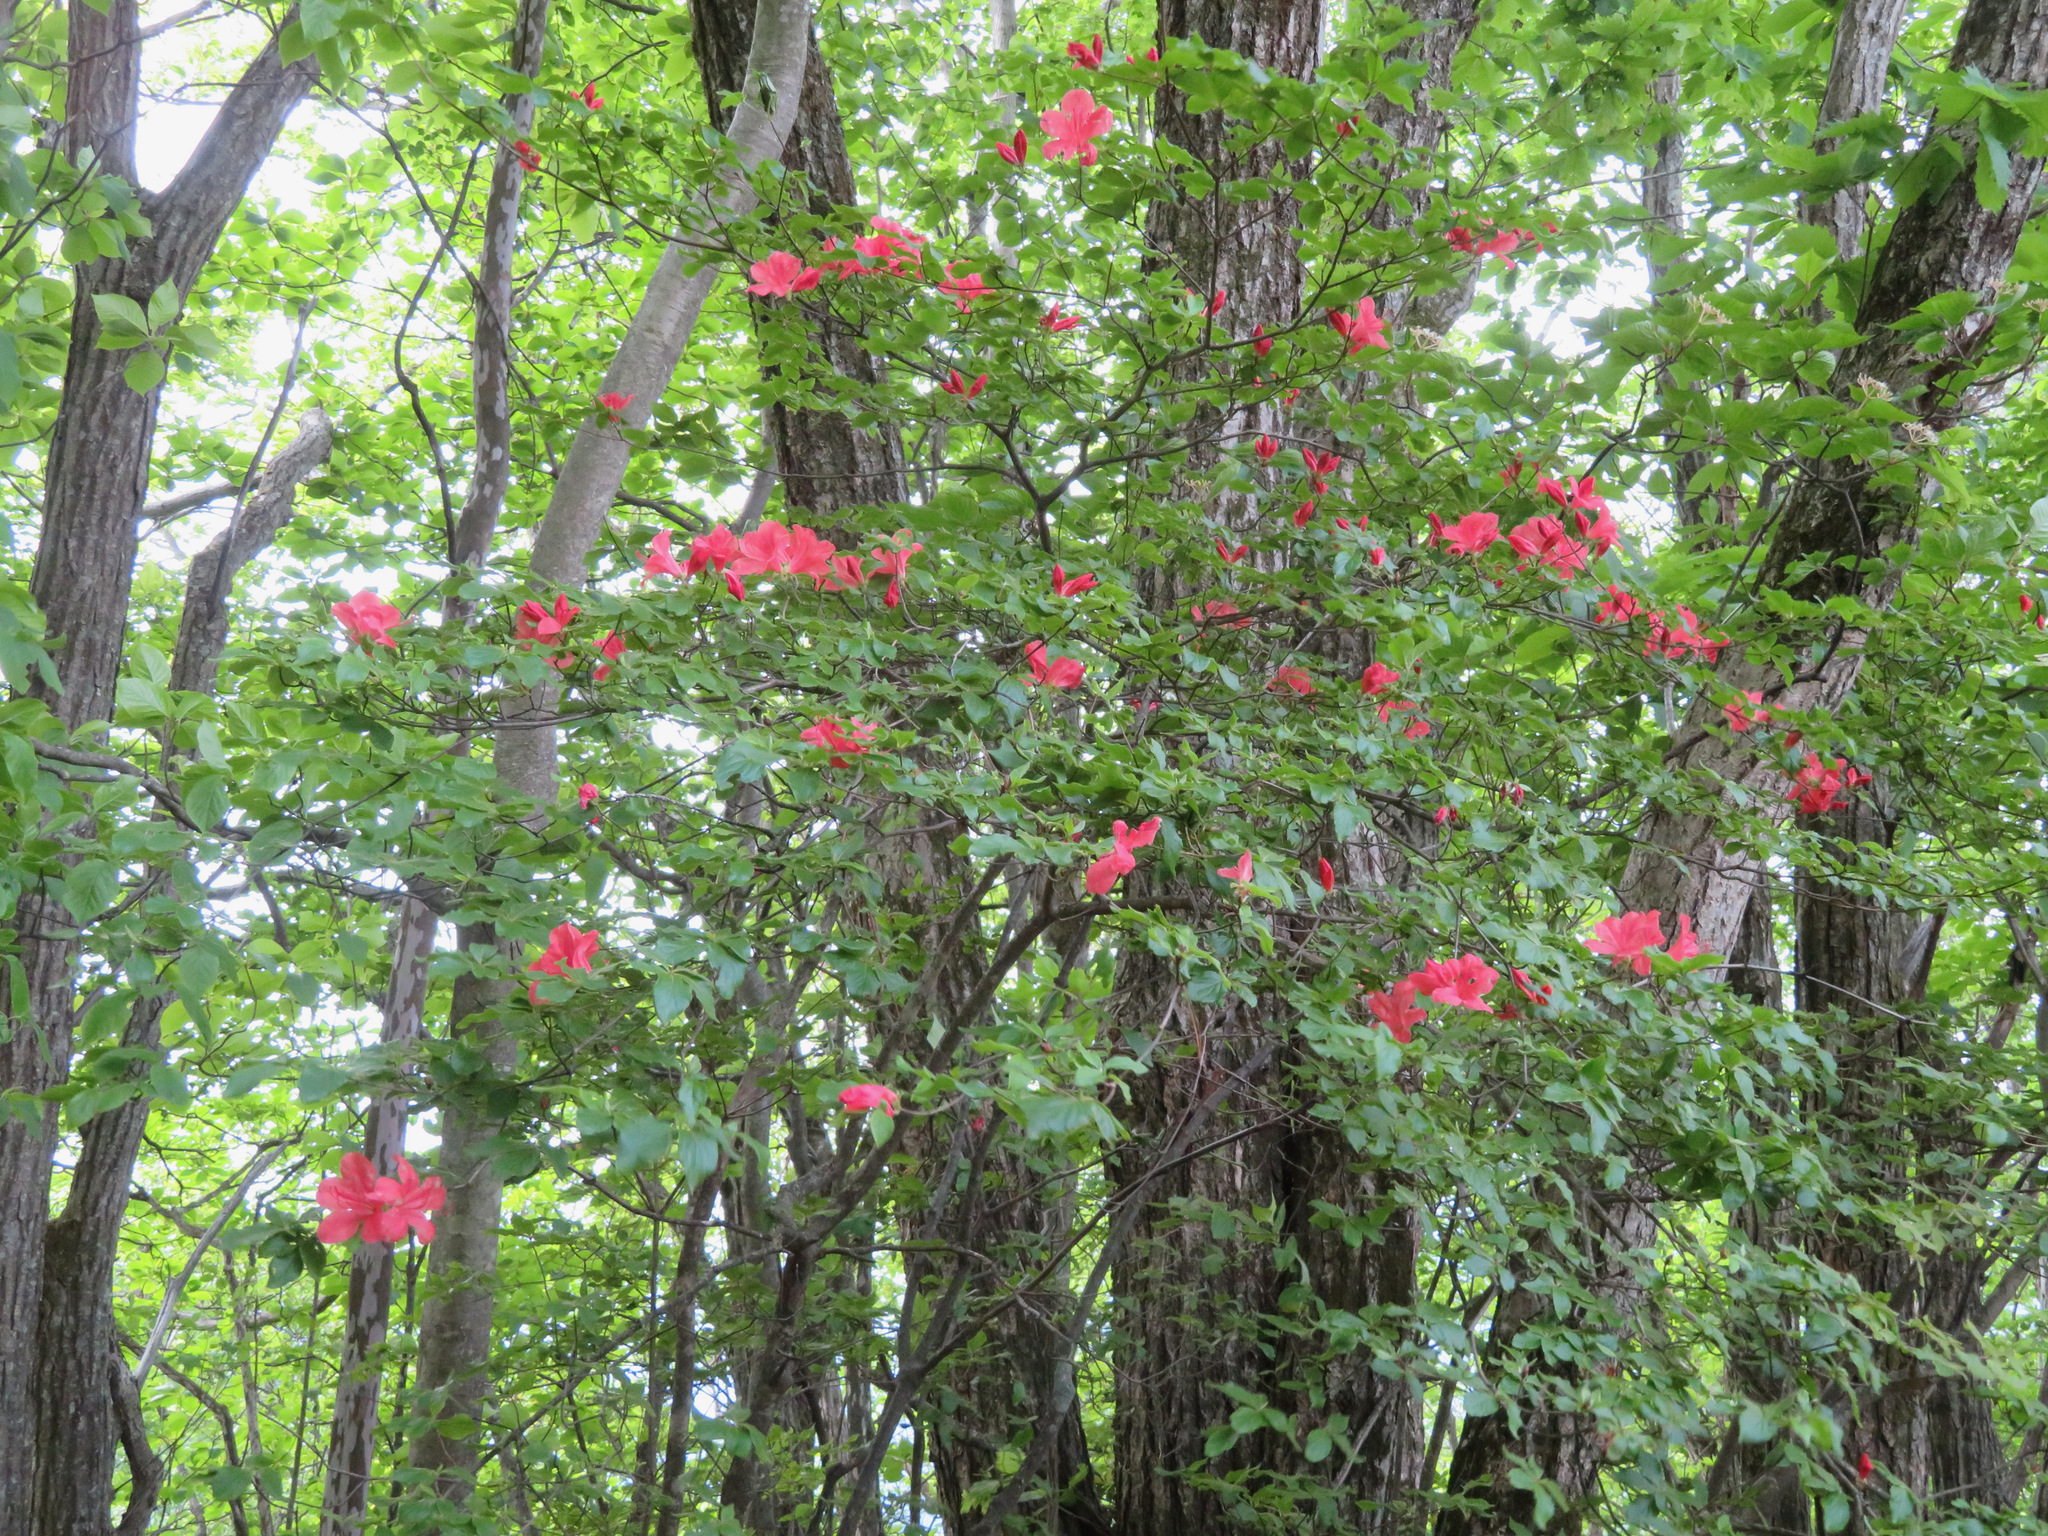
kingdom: Plantae
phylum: Tracheophyta
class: Magnoliopsida
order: Ericales
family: Ericaceae
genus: Rhododendron
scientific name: Rhododendron kaempferi
